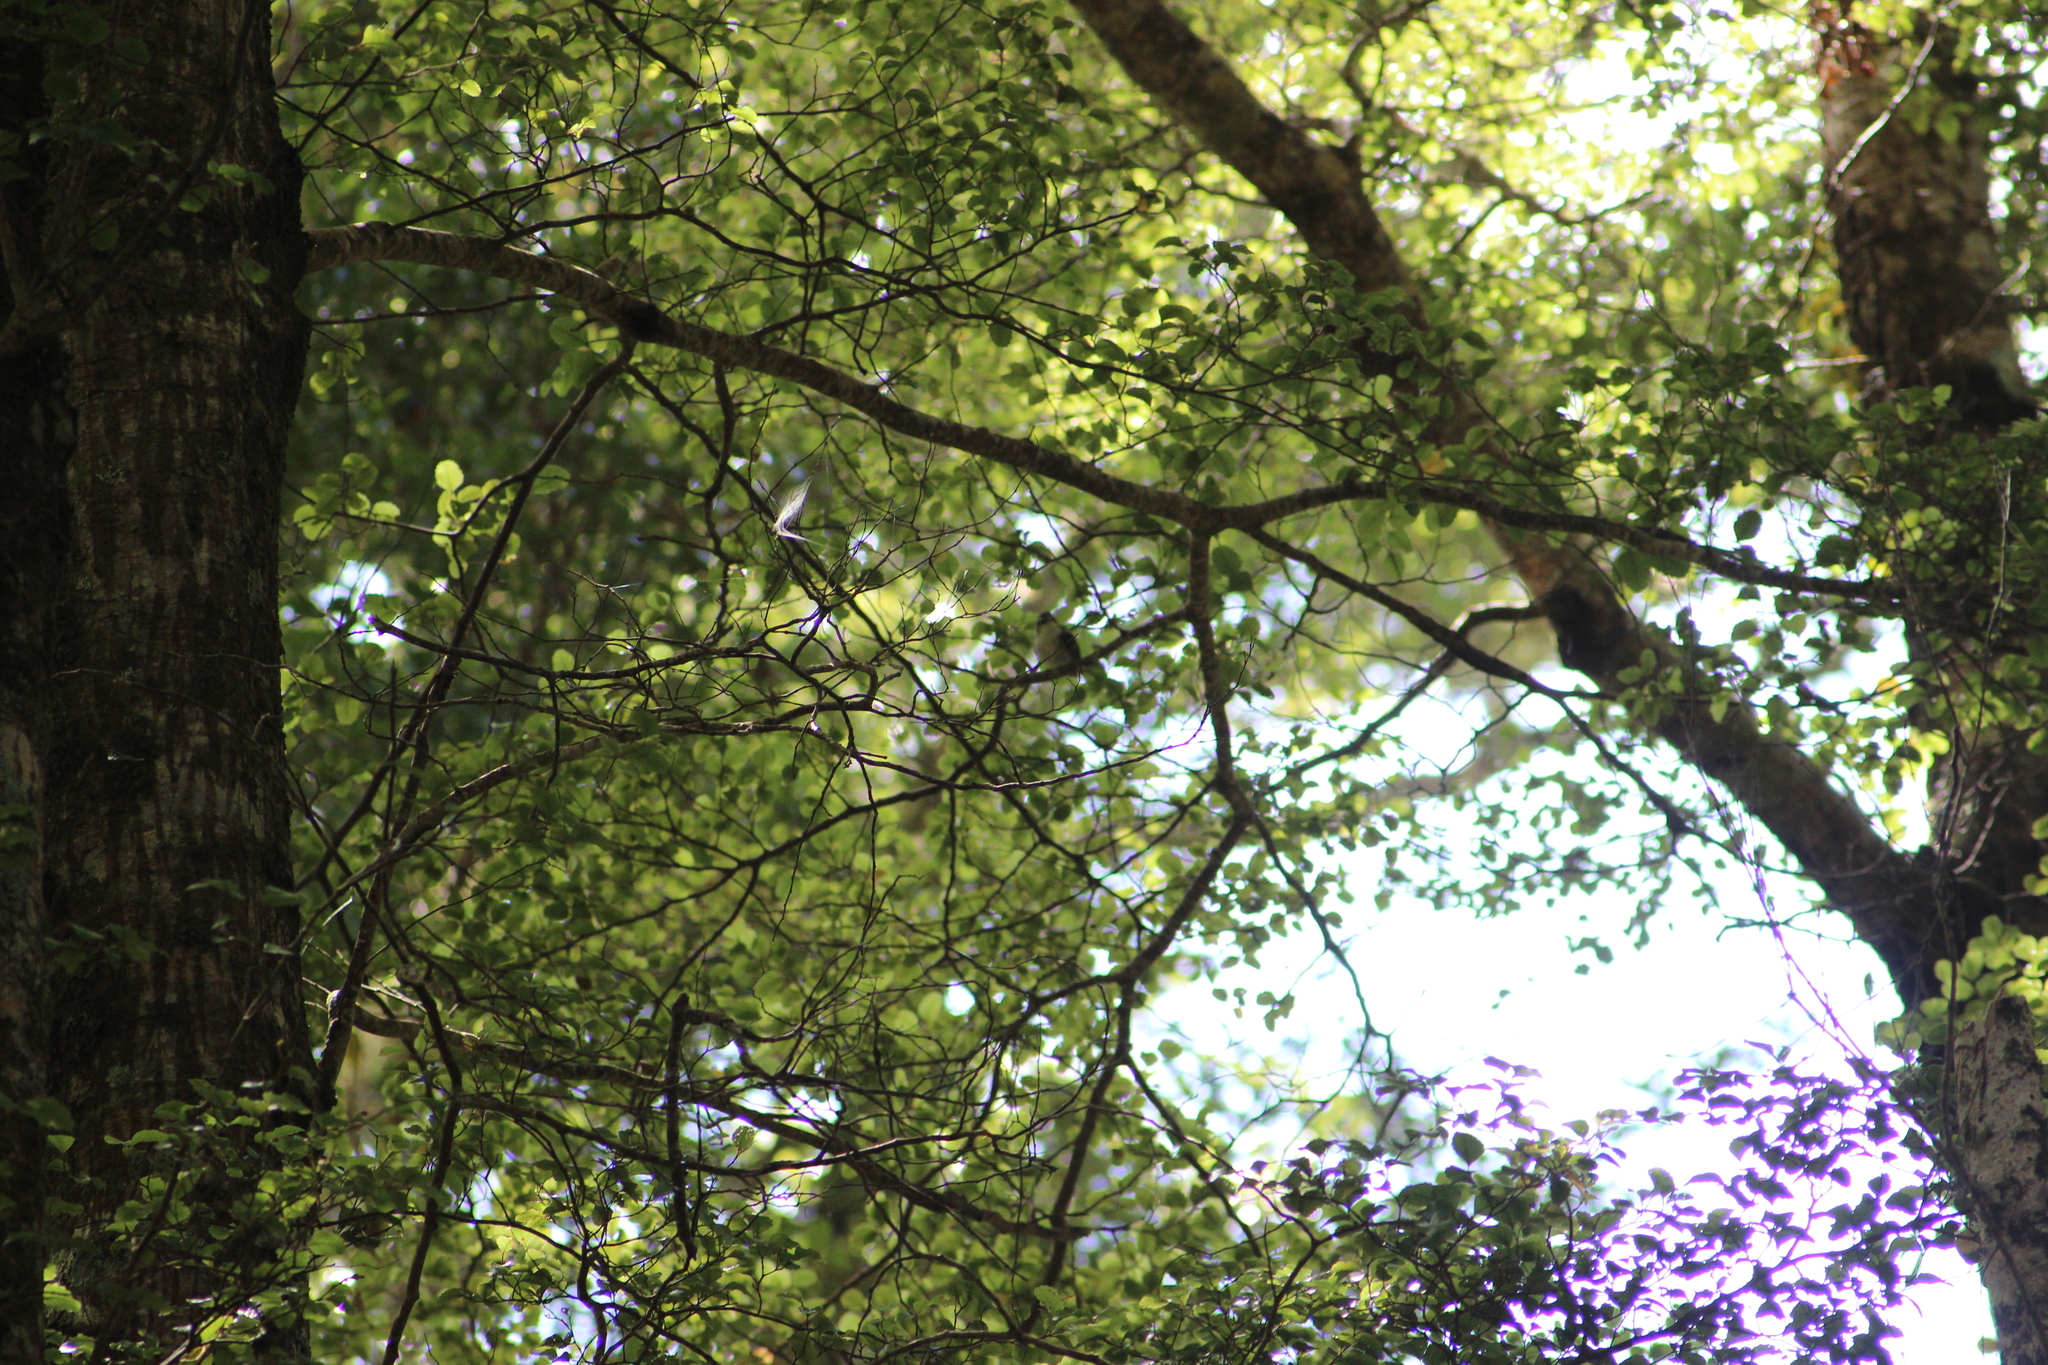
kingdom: Animalia
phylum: Chordata
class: Aves
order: Passeriformes
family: Acanthisittidae
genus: Acanthisitta
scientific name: Acanthisitta chloris
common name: Rifleman
